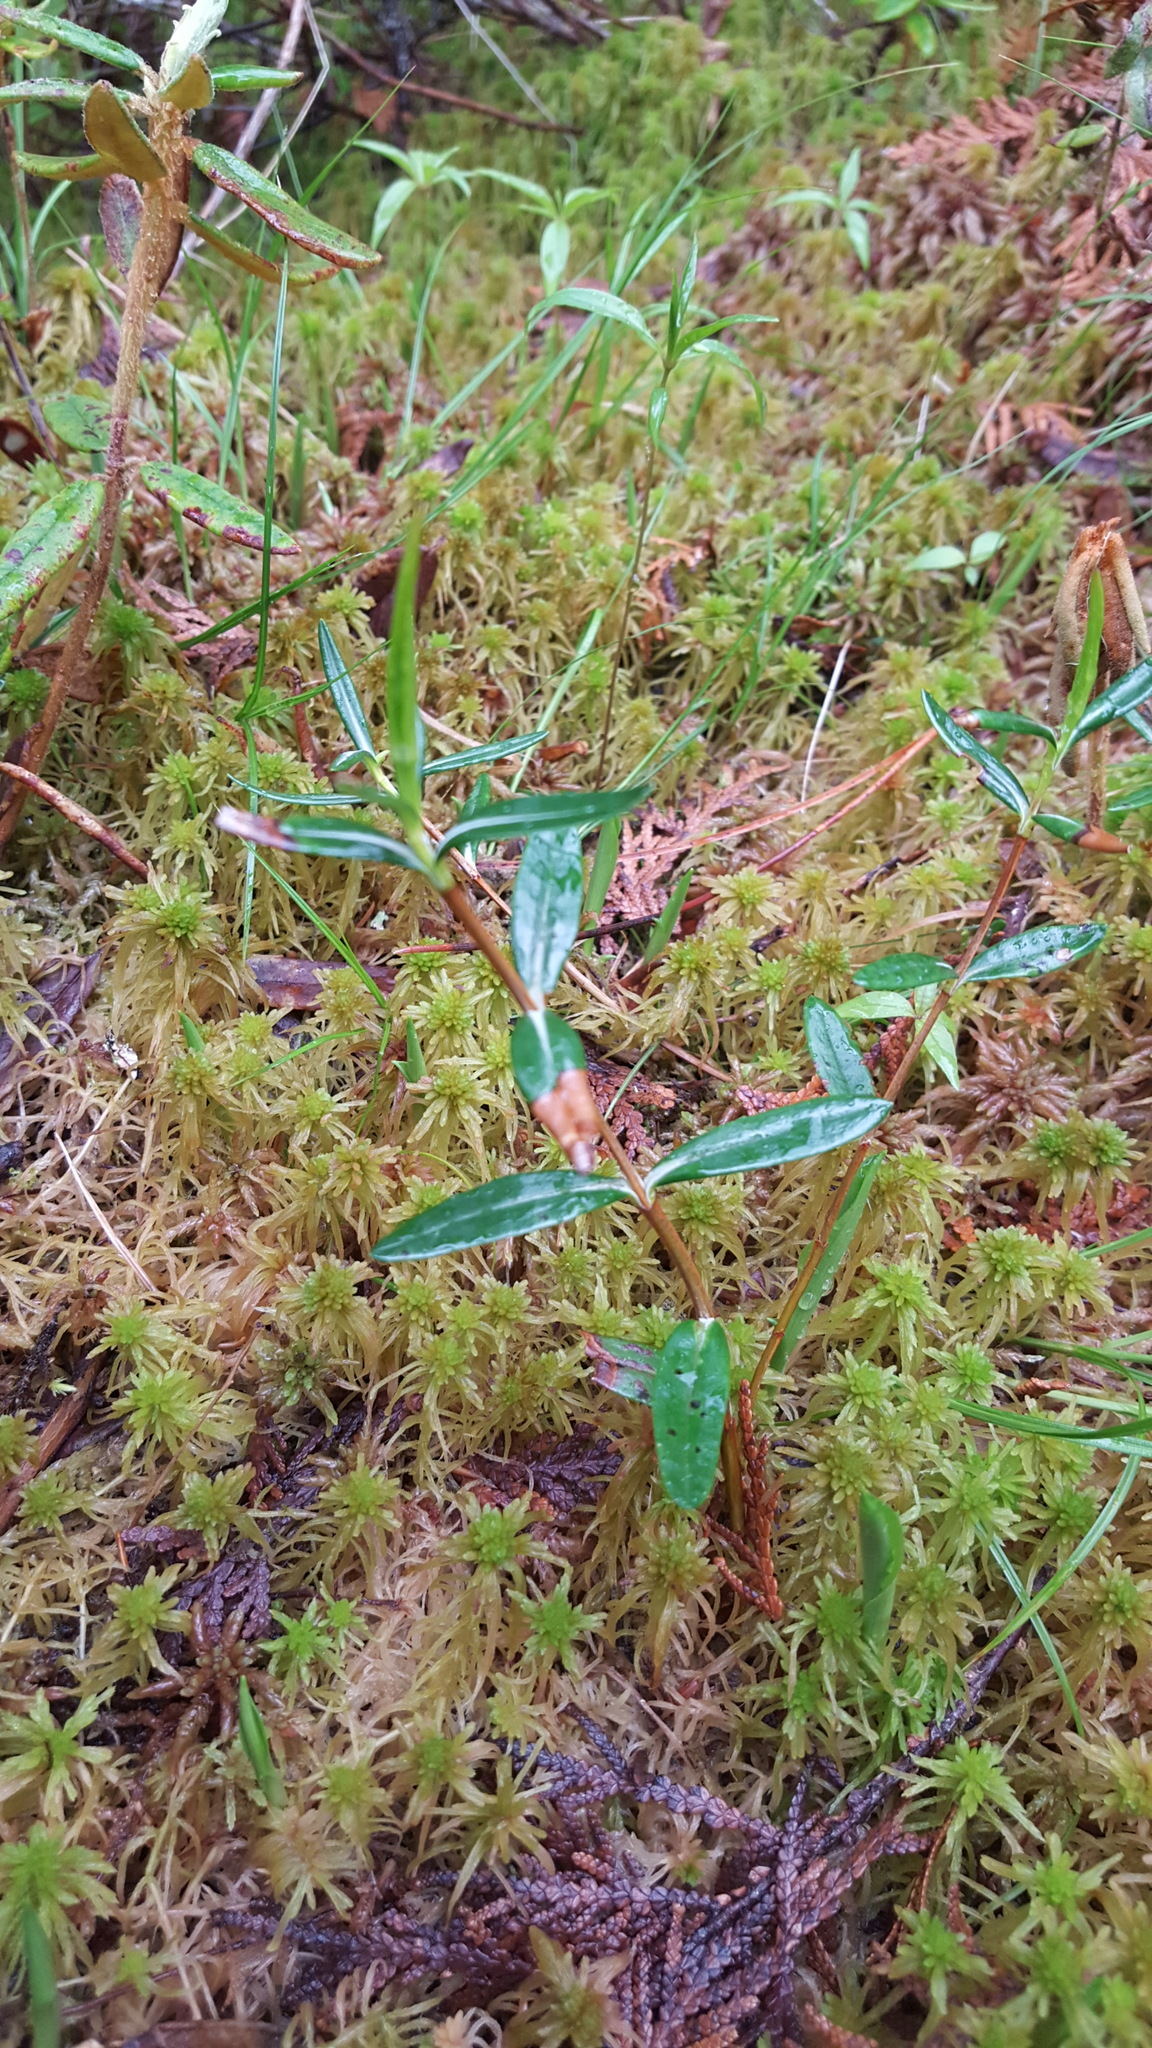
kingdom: Plantae
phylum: Tracheophyta
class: Magnoliopsida
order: Ericales
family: Ericaceae
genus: Kalmia
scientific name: Kalmia polifolia
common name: Bog-laurel
